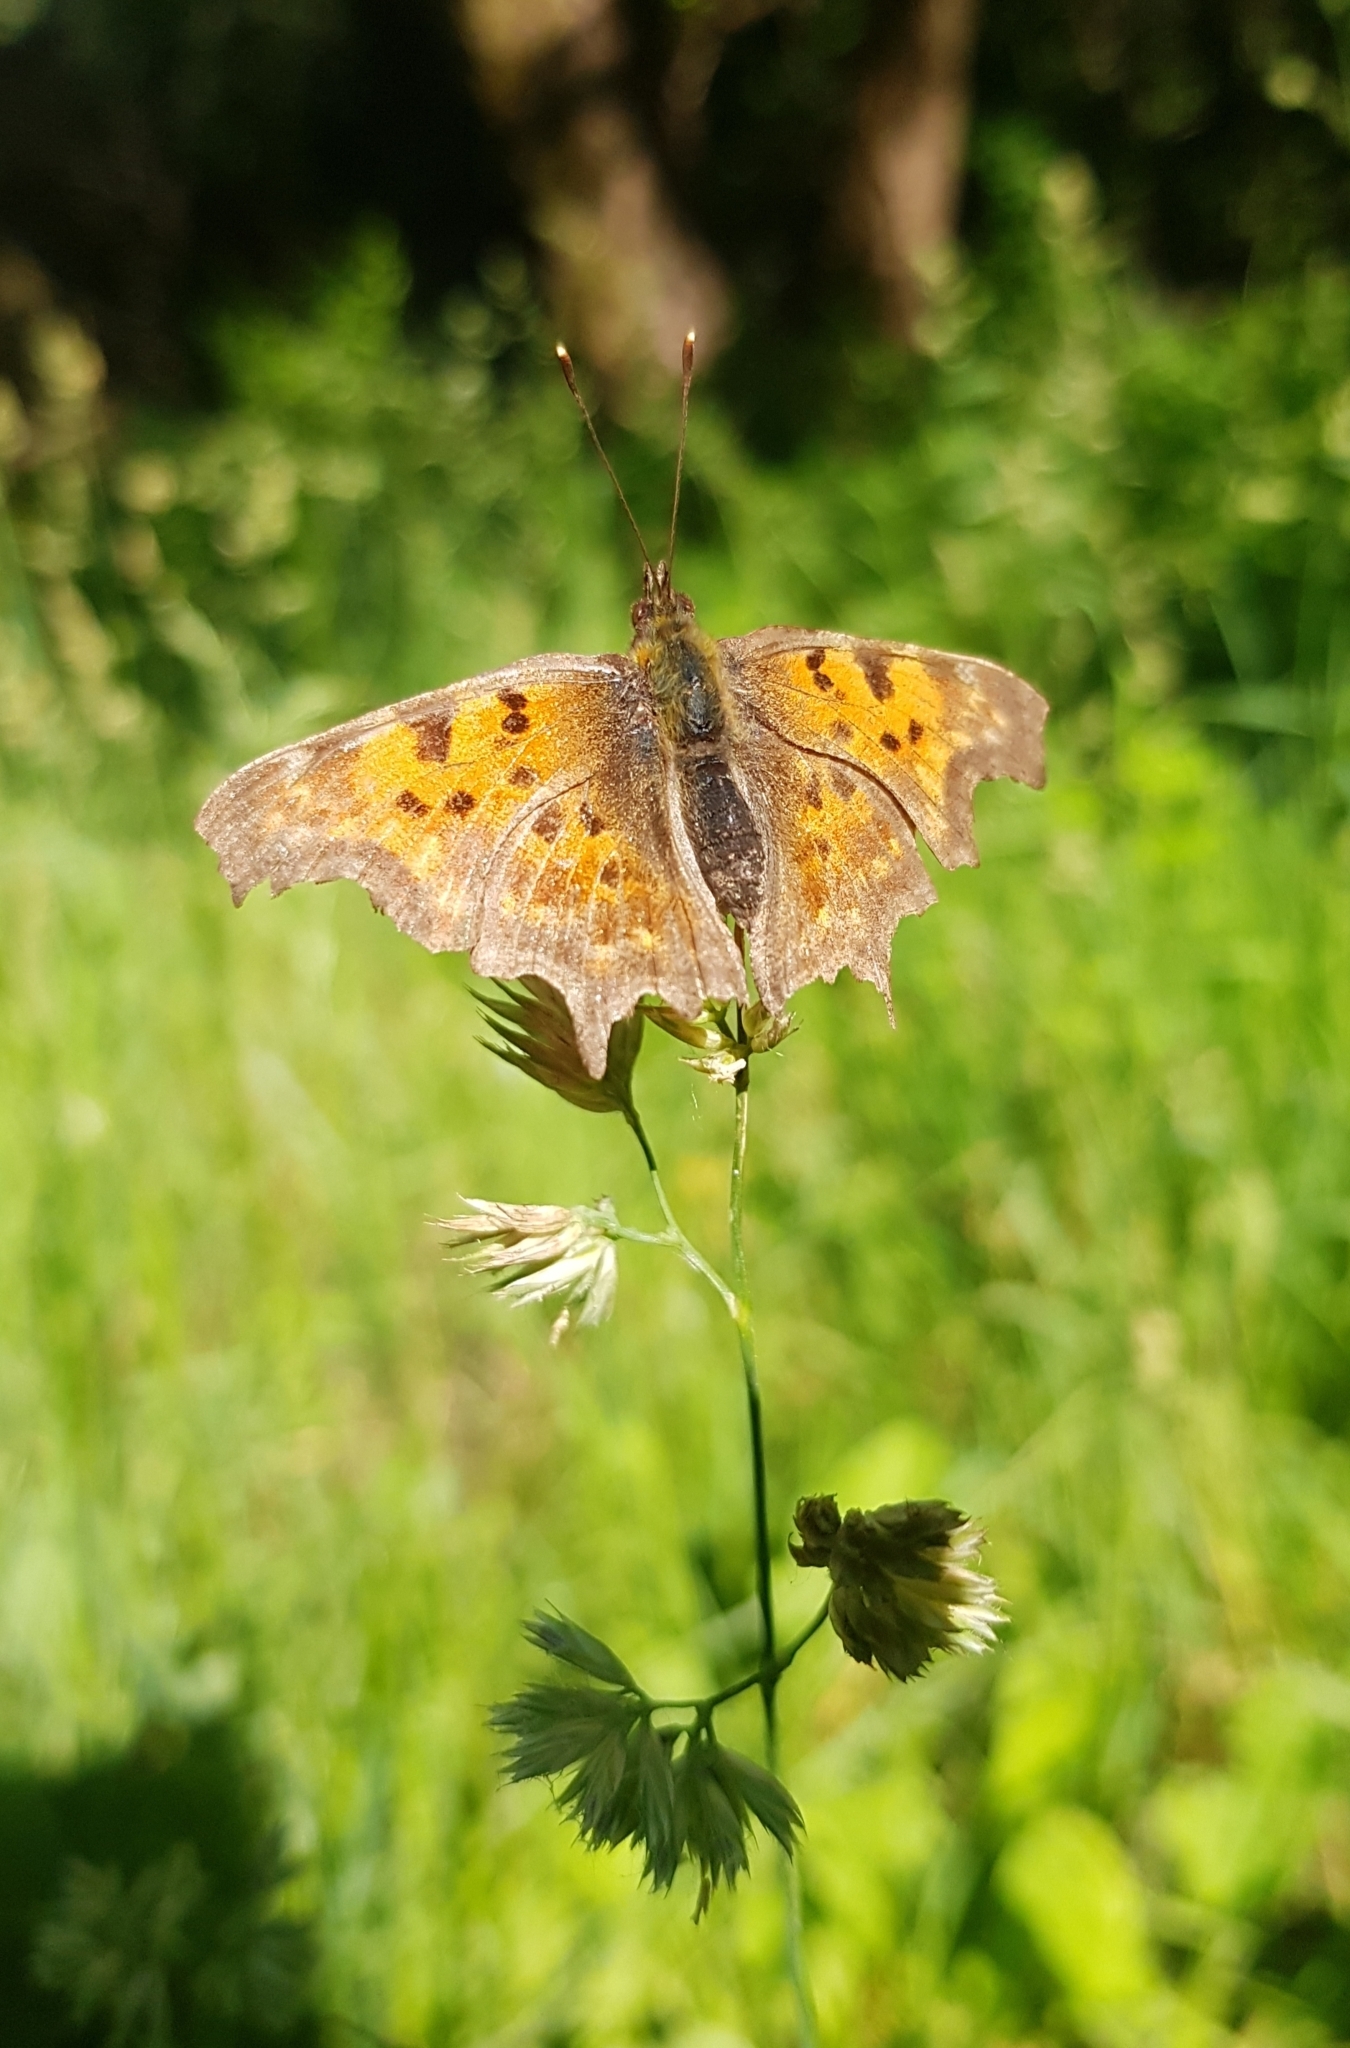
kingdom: Animalia
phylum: Arthropoda
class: Insecta
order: Lepidoptera
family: Nymphalidae
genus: Polygonia
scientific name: Polygonia c-album
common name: Comma
